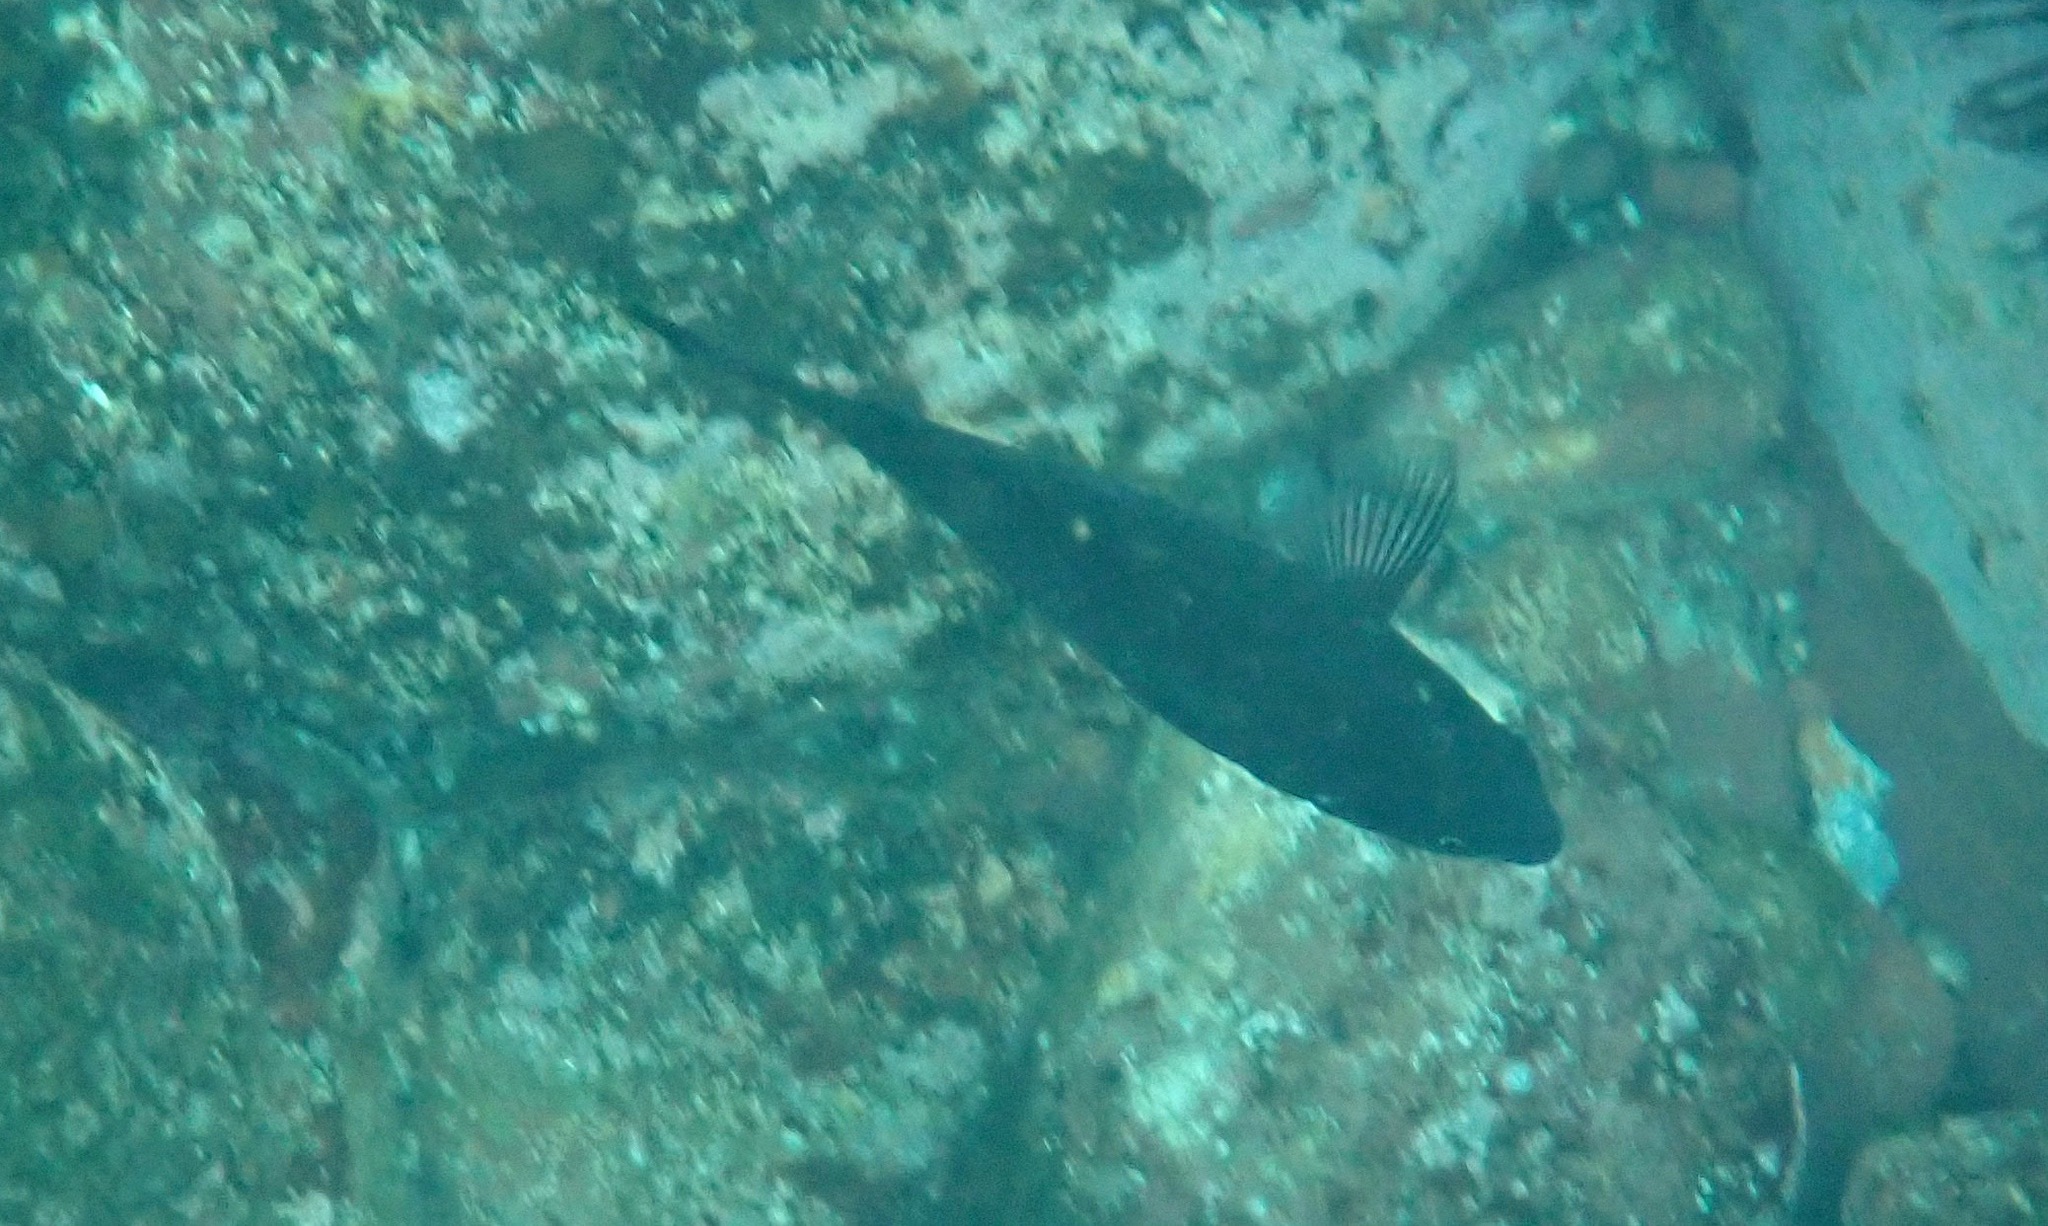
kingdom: Animalia
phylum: Chordata
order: Perciformes
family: Pomacentridae
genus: Parma
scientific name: Parma microlepis
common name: White-ear
